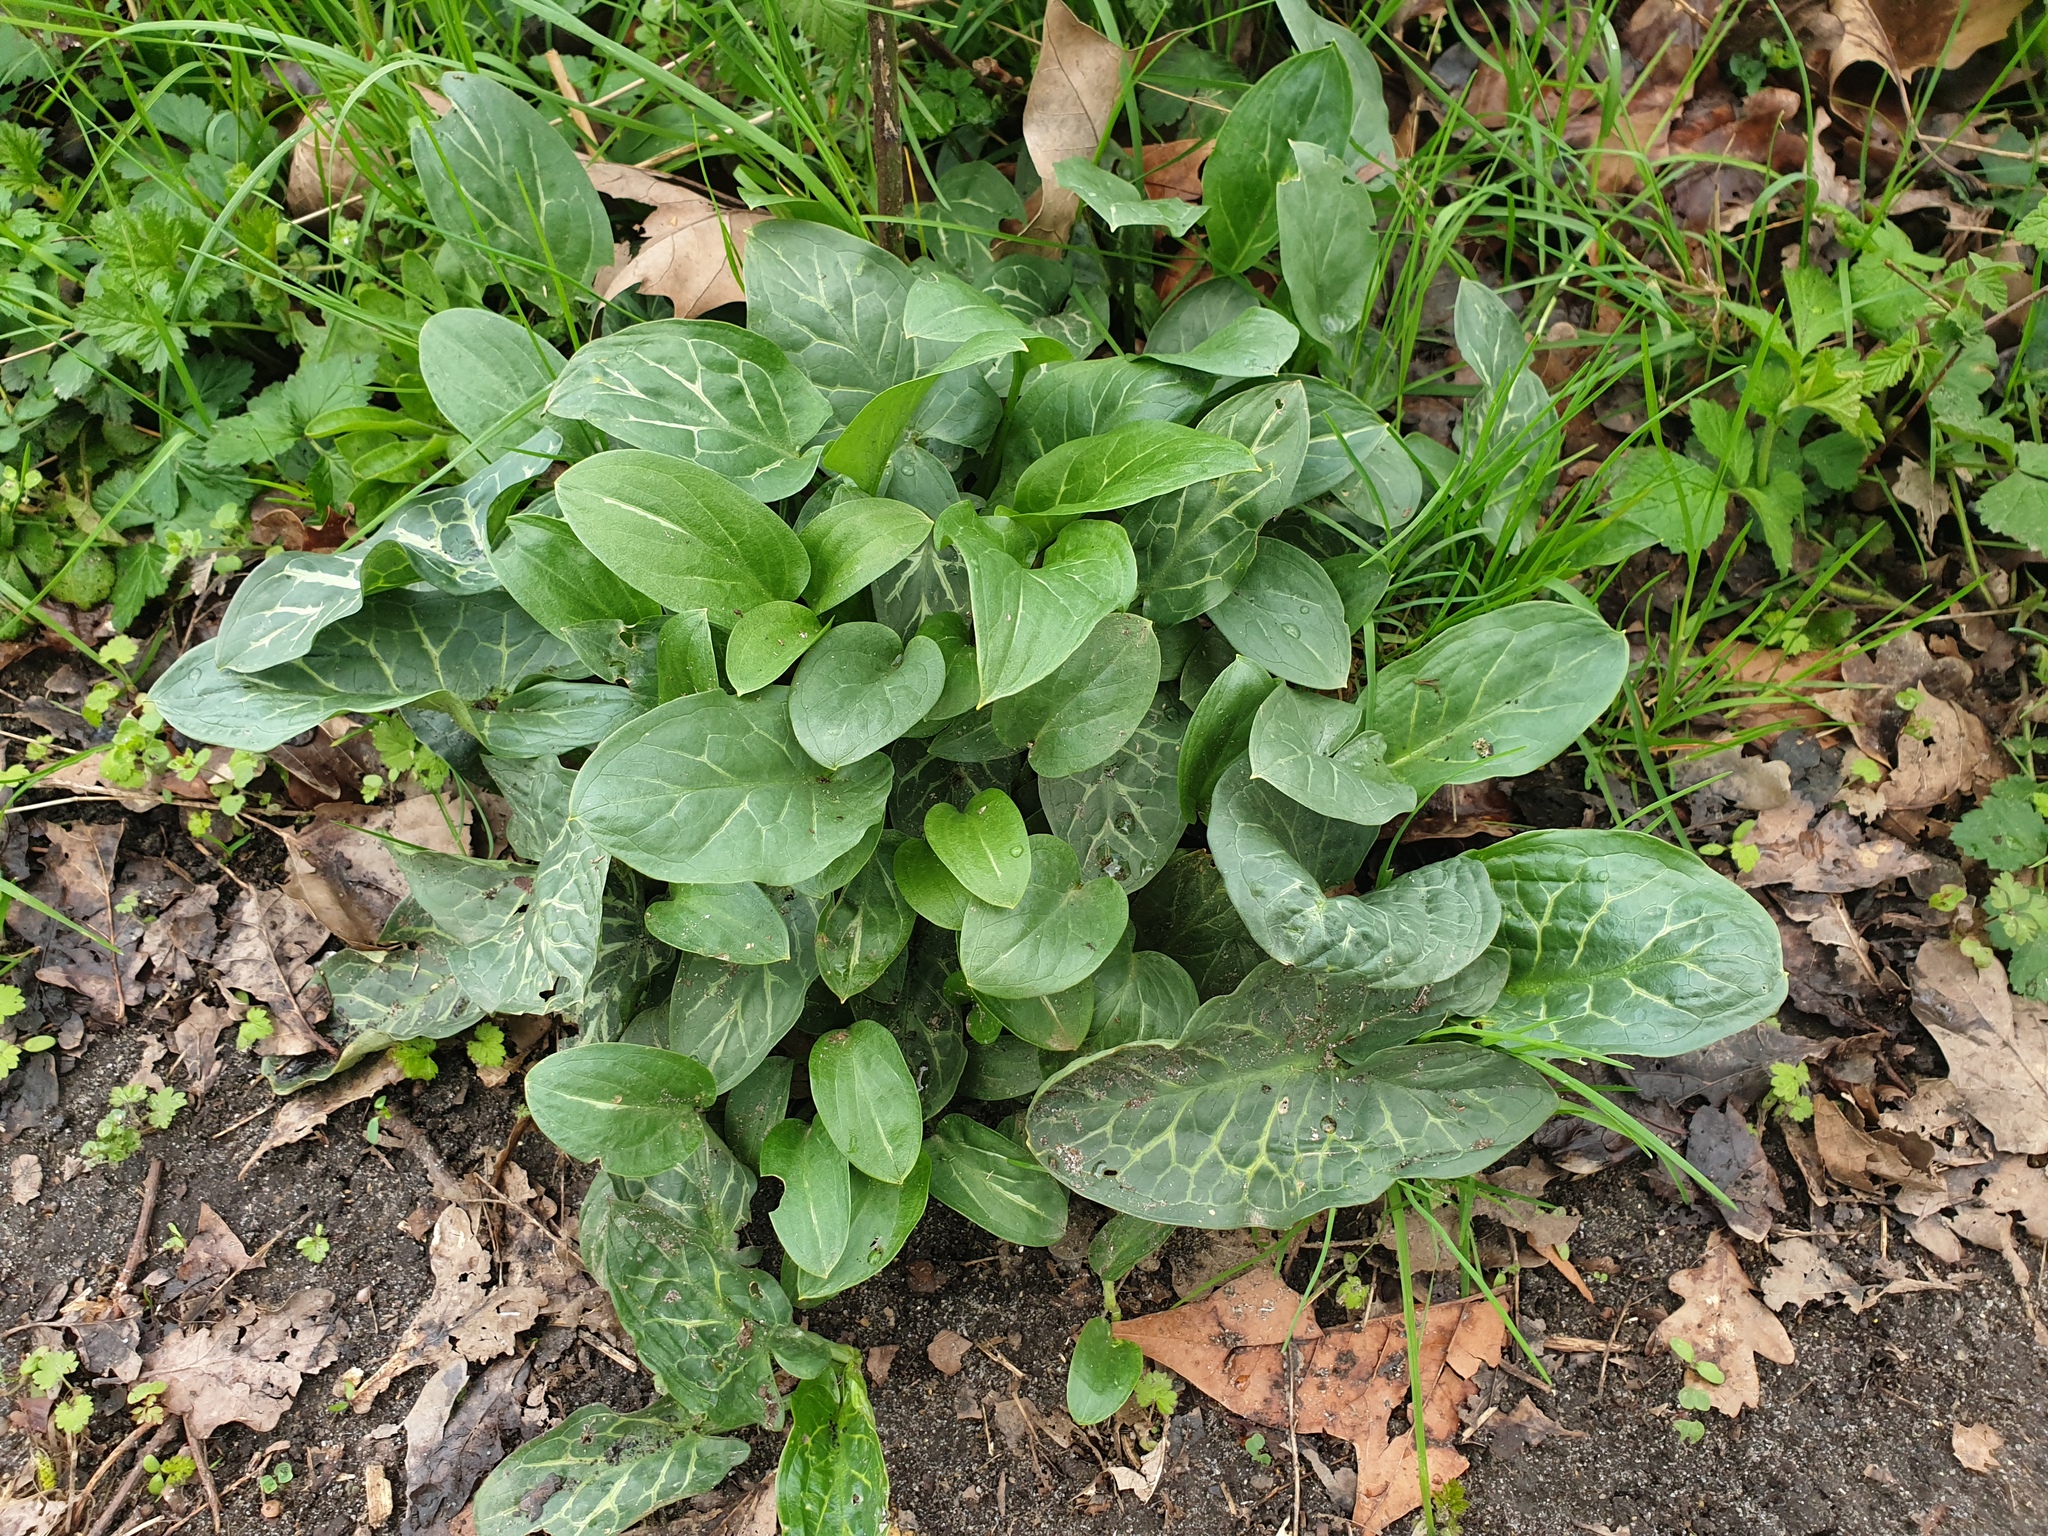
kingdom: Plantae
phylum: Tracheophyta
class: Liliopsida
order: Alismatales
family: Araceae
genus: Arum
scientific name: Arum italicum
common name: Italian lords-and-ladies
